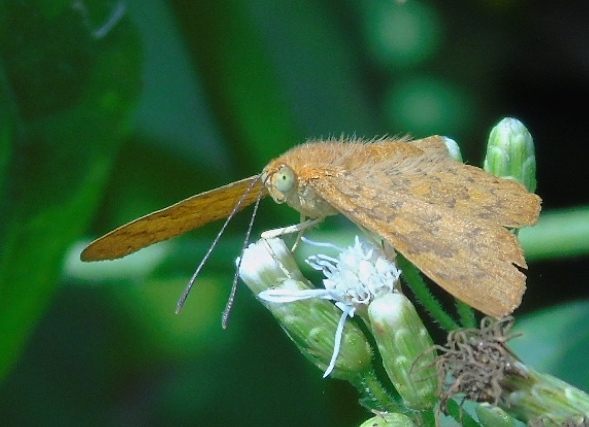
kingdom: Animalia
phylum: Arthropoda
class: Insecta
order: Lepidoptera
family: Lycaenidae
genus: Emesis
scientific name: Emesis
